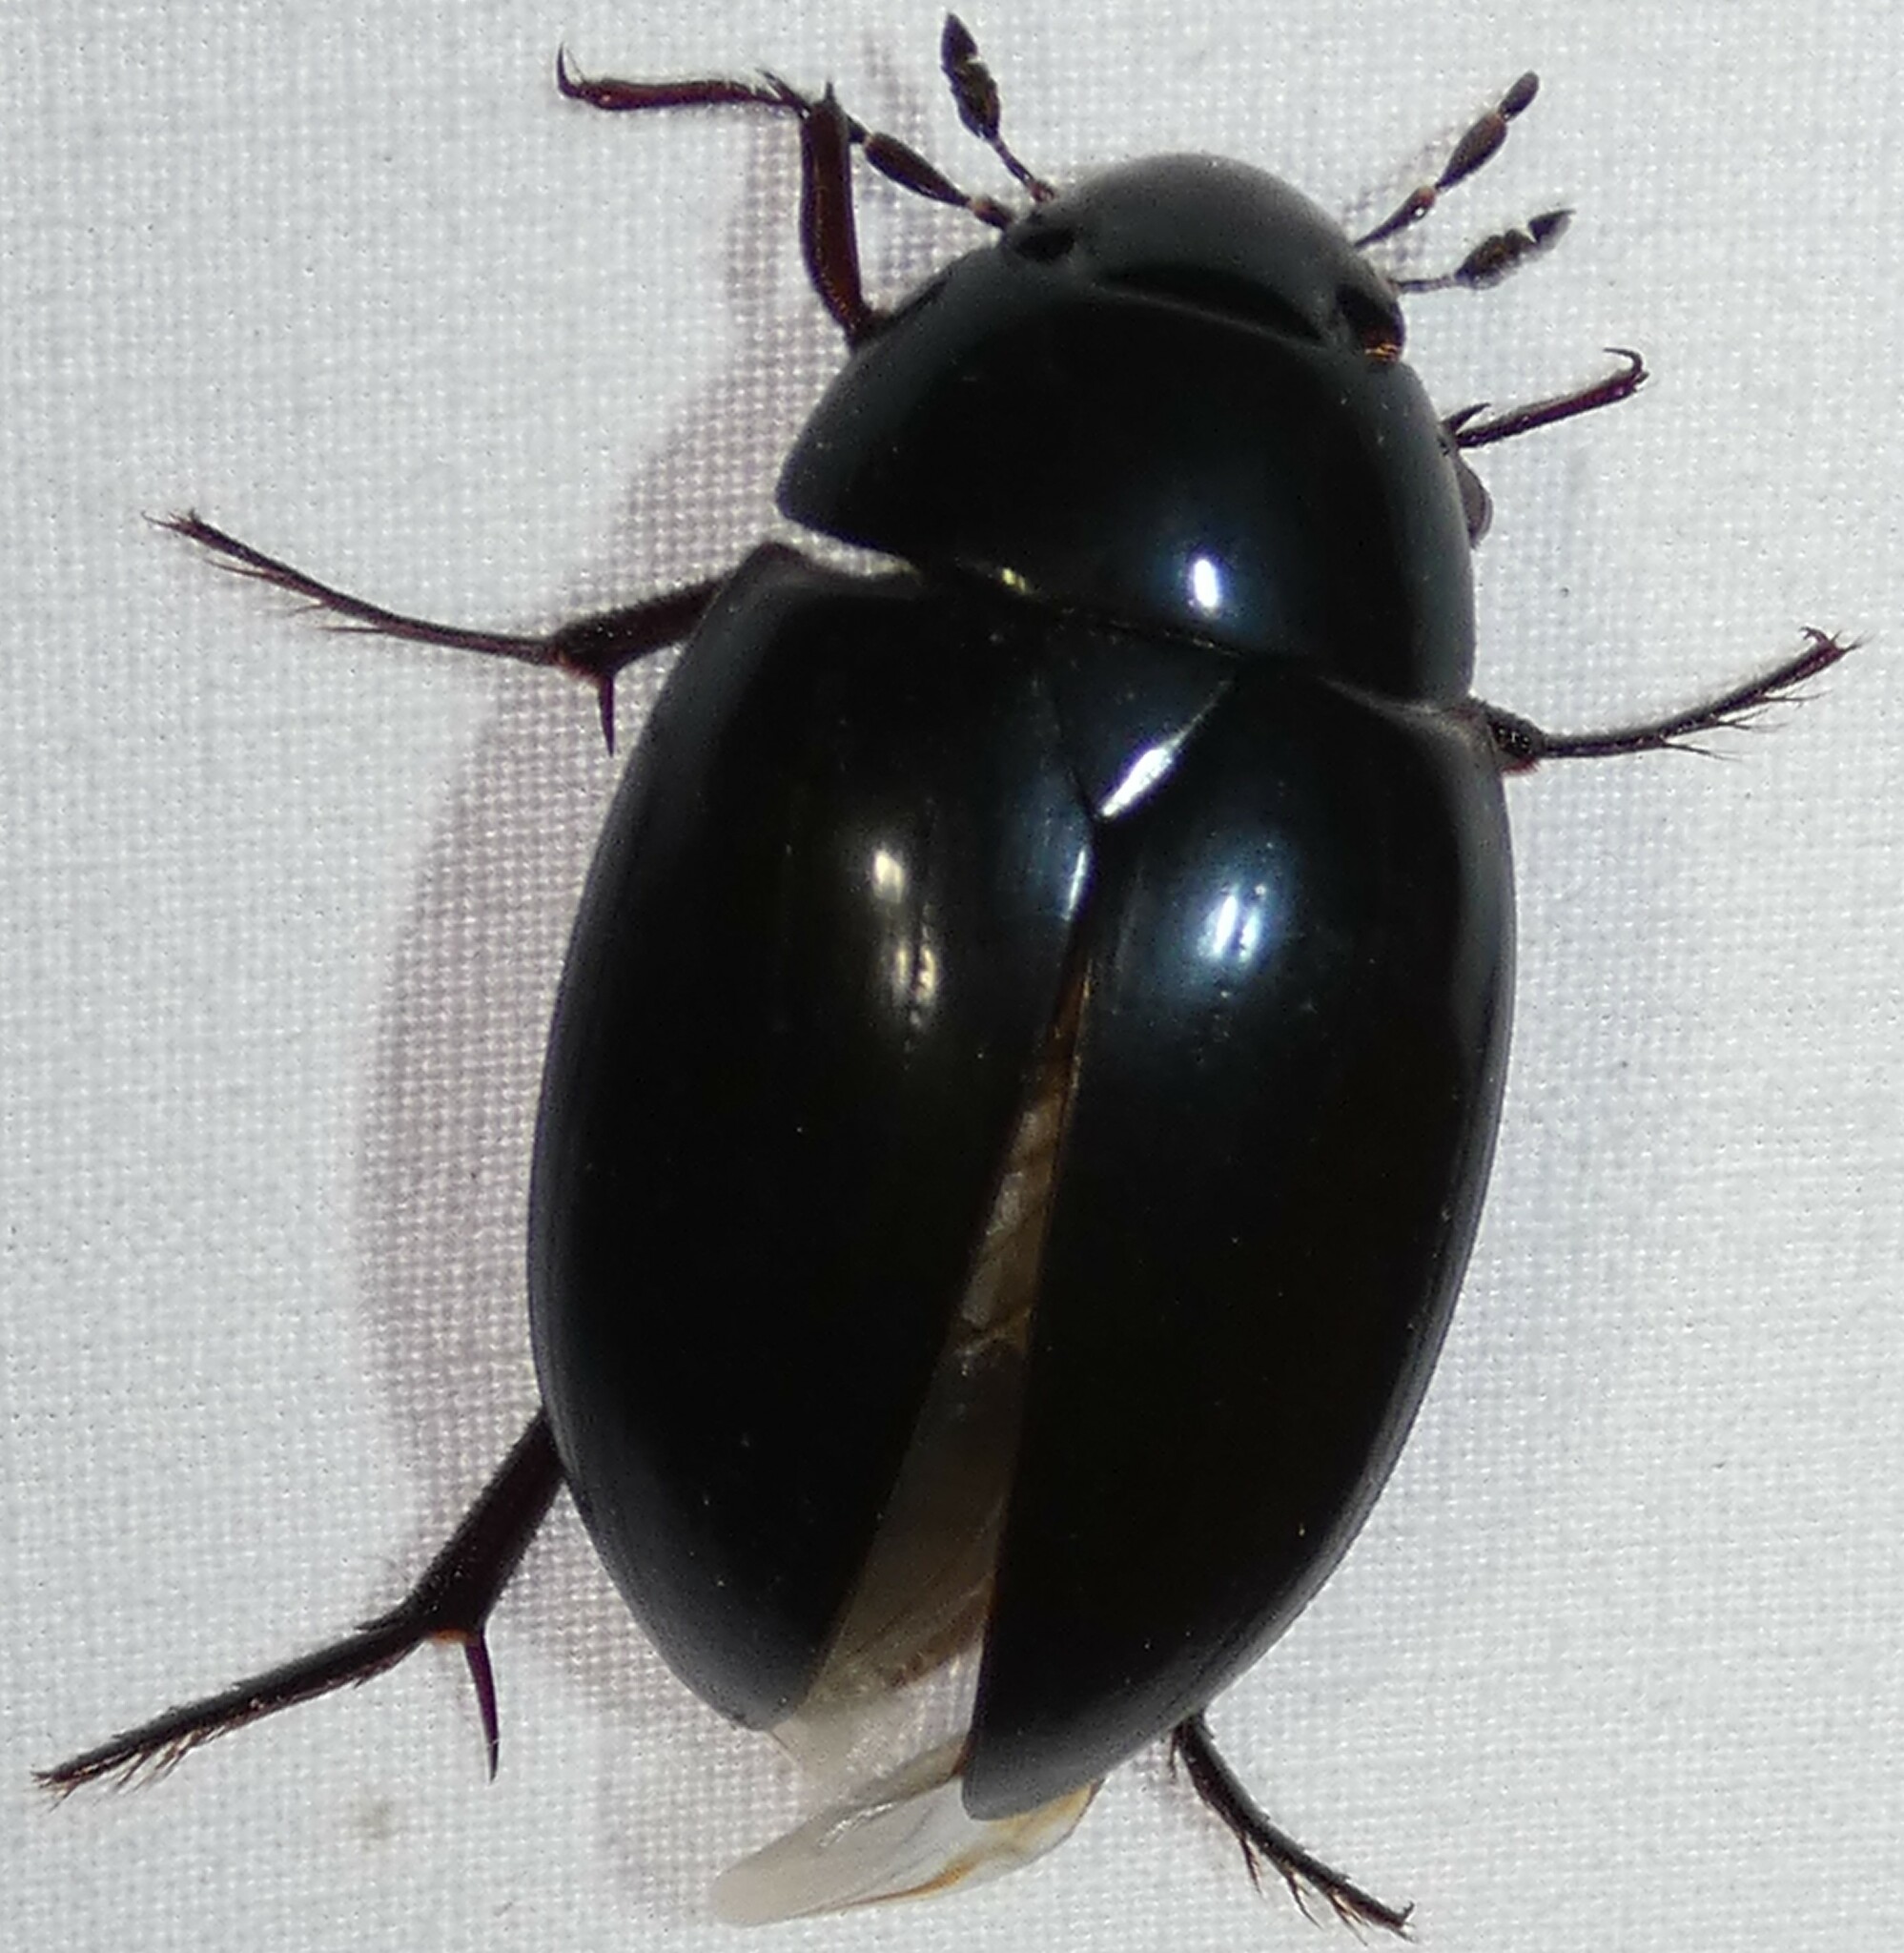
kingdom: Animalia
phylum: Arthropoda
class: Insecta
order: Coleoptera
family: Hydrophilidae
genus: Hydrophilus
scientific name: Hydrophilus ovatus
